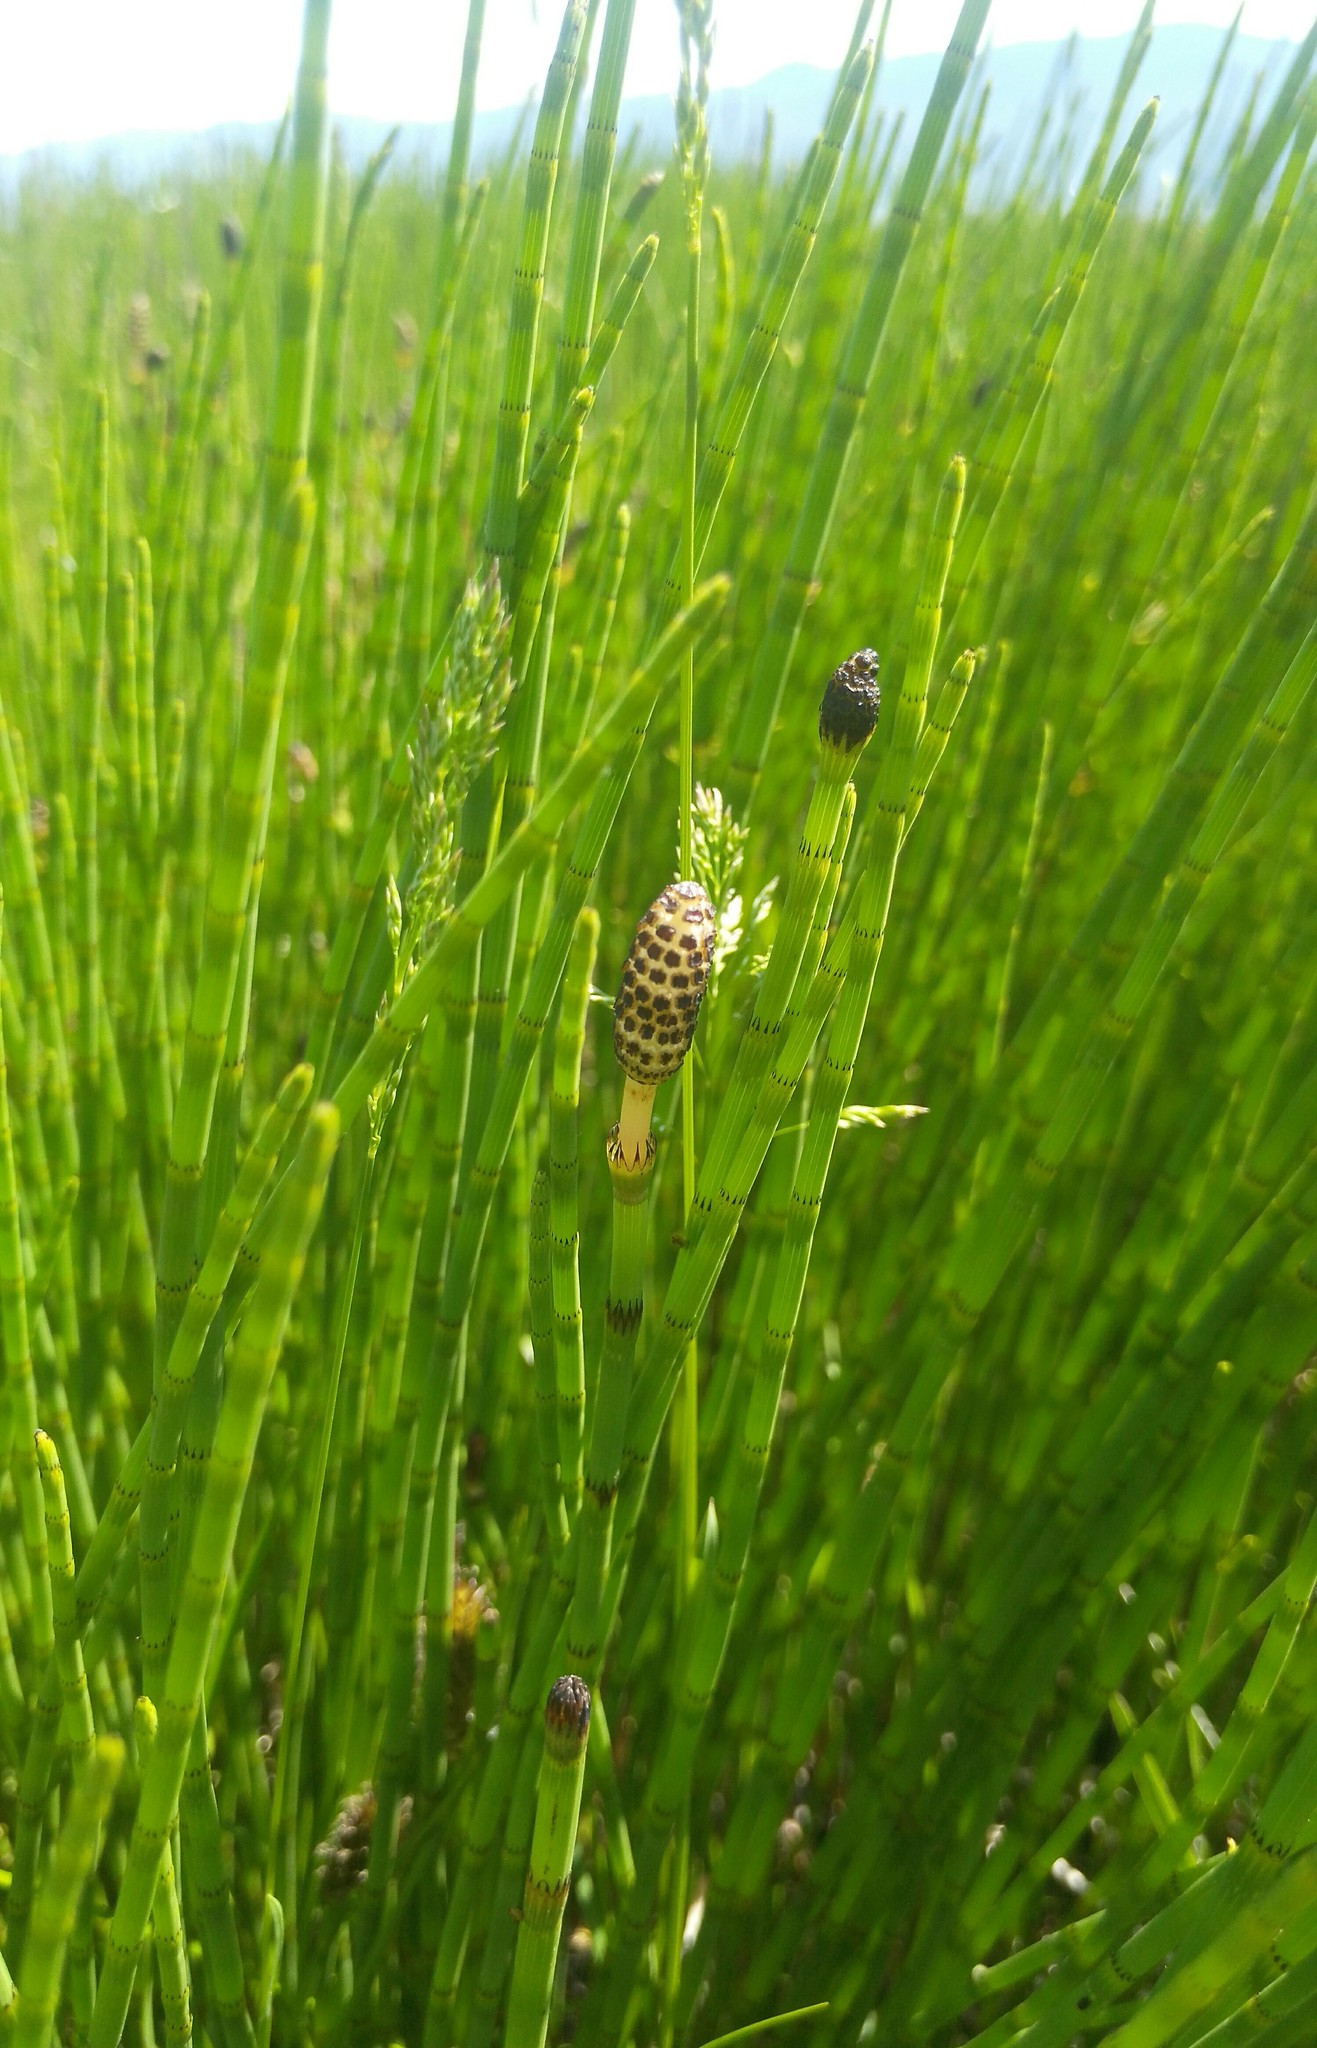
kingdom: Plantae
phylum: Tracheophyta
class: Polypodiopsida
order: Equisetales
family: Equisetaceae
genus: Equisetum
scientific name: Equisetum fluviatile
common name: Water horsetail
